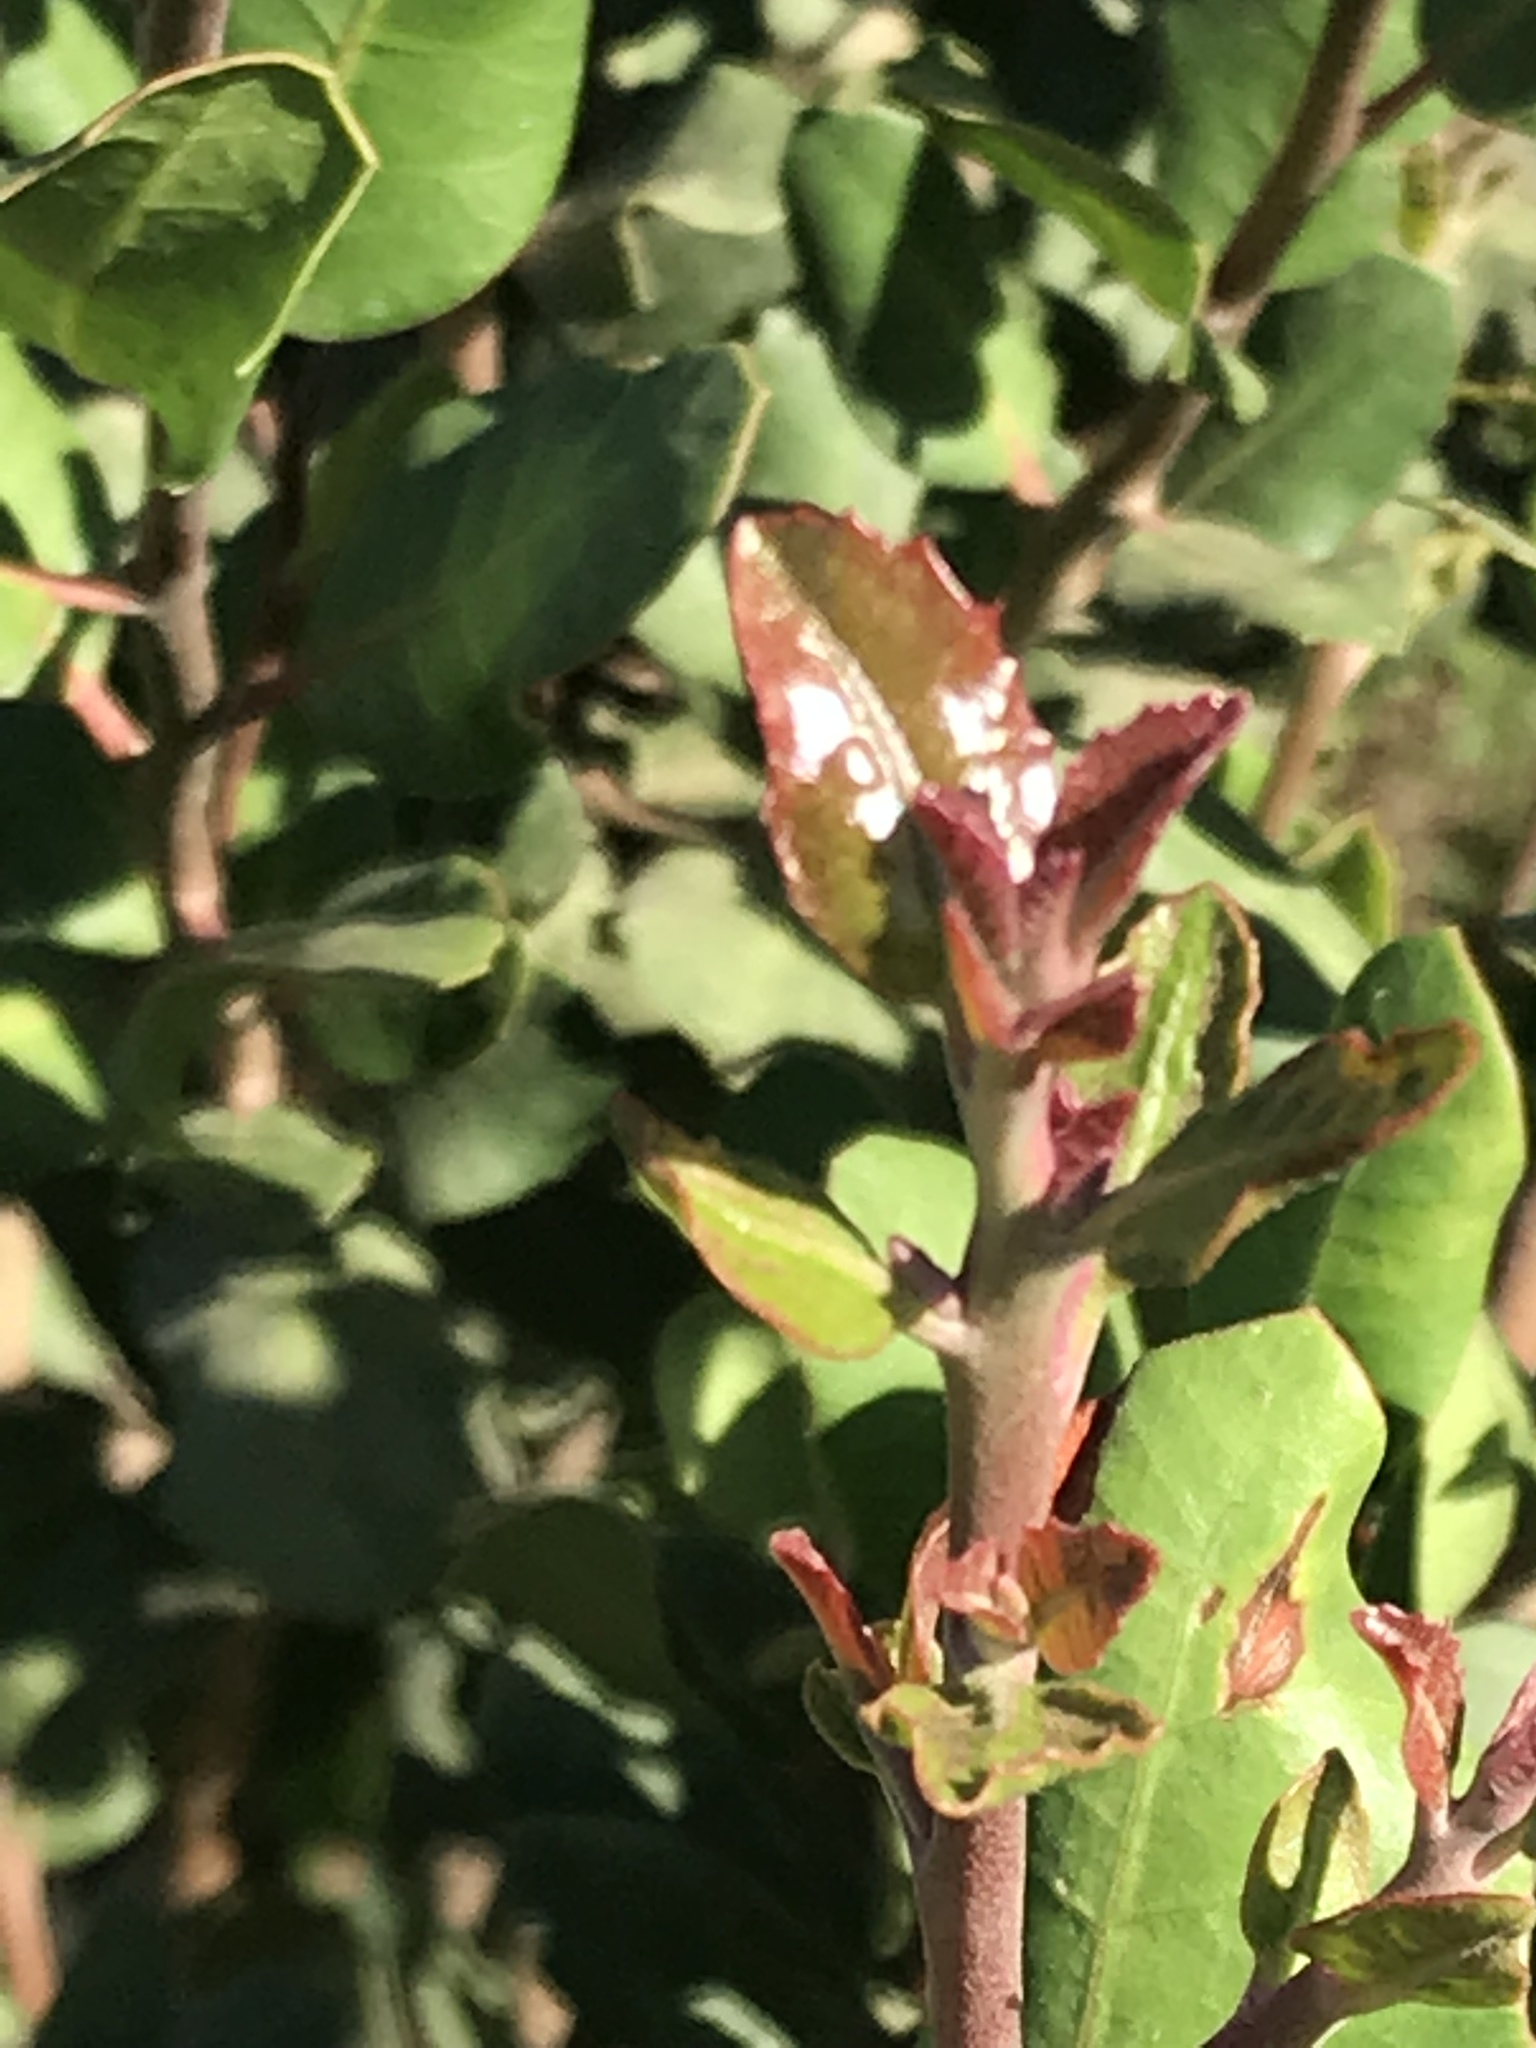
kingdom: Plantae
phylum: Tracheophyta
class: Magnoliopsida
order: Sapindales
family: Anacardiaceae
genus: Rhus
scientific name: Rhus integrifolia
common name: Lemonade sumac
